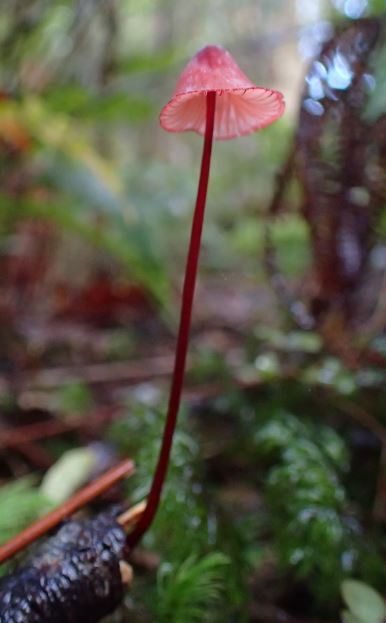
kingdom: Fungi
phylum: Basidiomycota
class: Agaricomycetes
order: Agaricales
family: Mycenaceae
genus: Mycena
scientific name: Mycena ura
